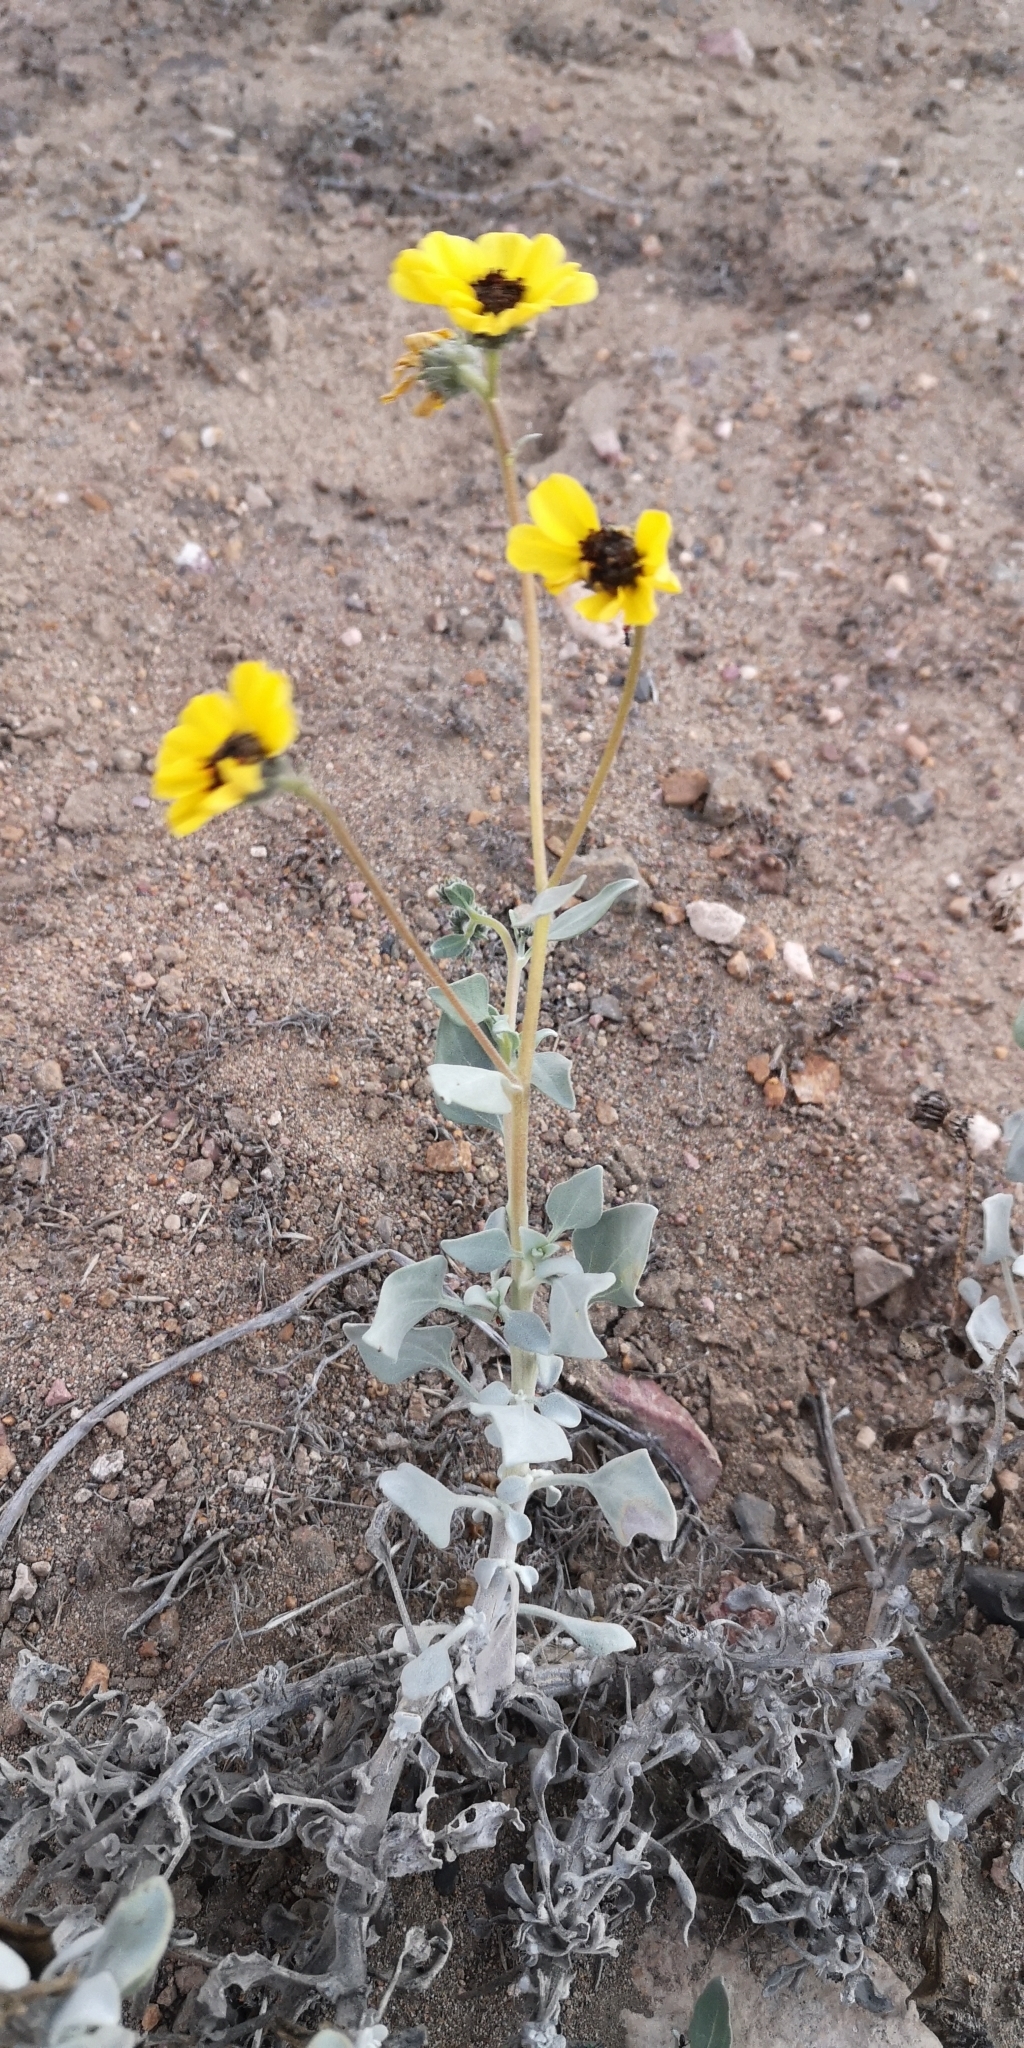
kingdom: Plantae
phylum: Tracheophyta
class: Magnoliopsida
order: Asterales
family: Asteraceae
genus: Encelia
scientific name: Encelia canescens
